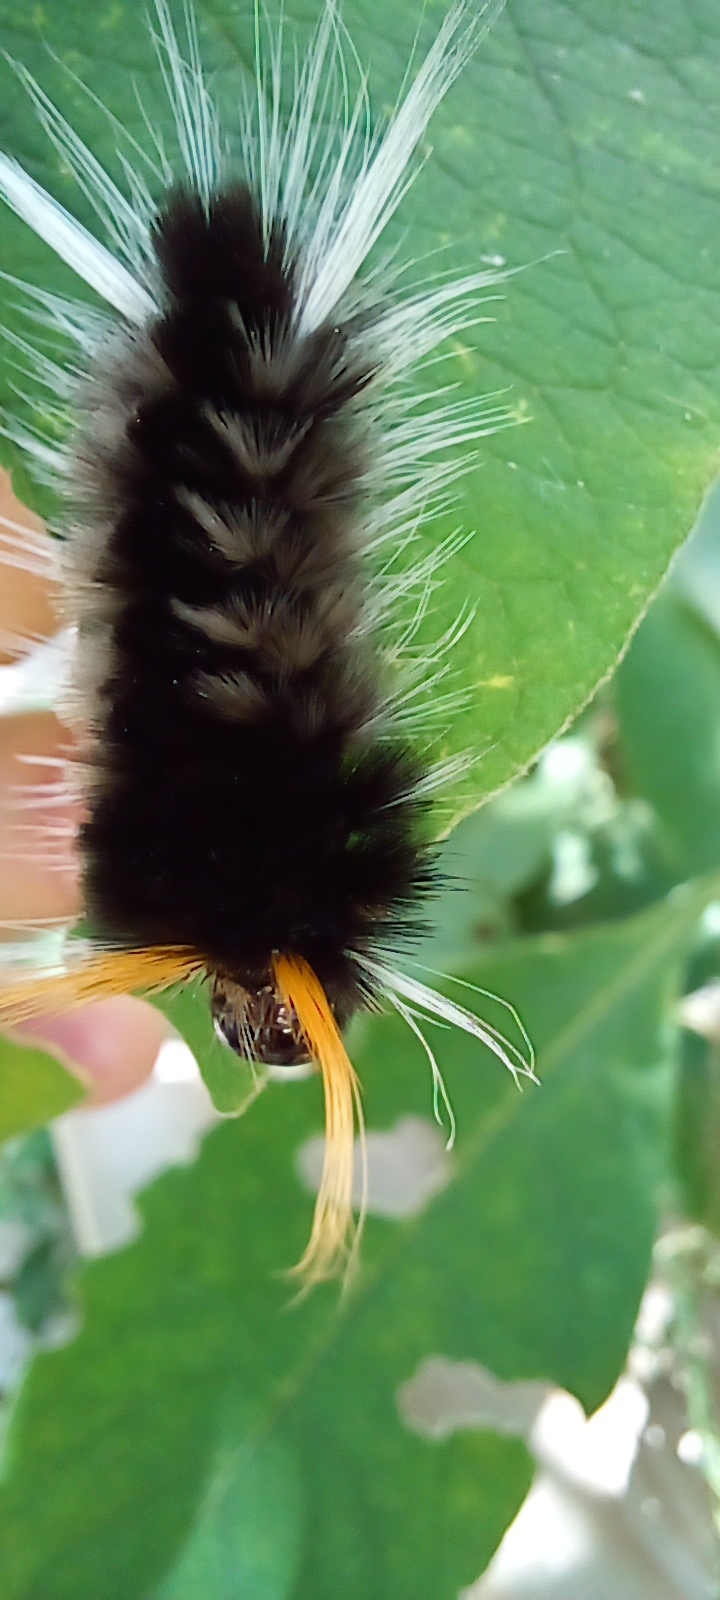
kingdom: Animalia
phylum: Arthropoda
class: Insecta
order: Lepidoptera
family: Erebidae
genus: Halysidota
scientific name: Halysidota ruscheweyhi
